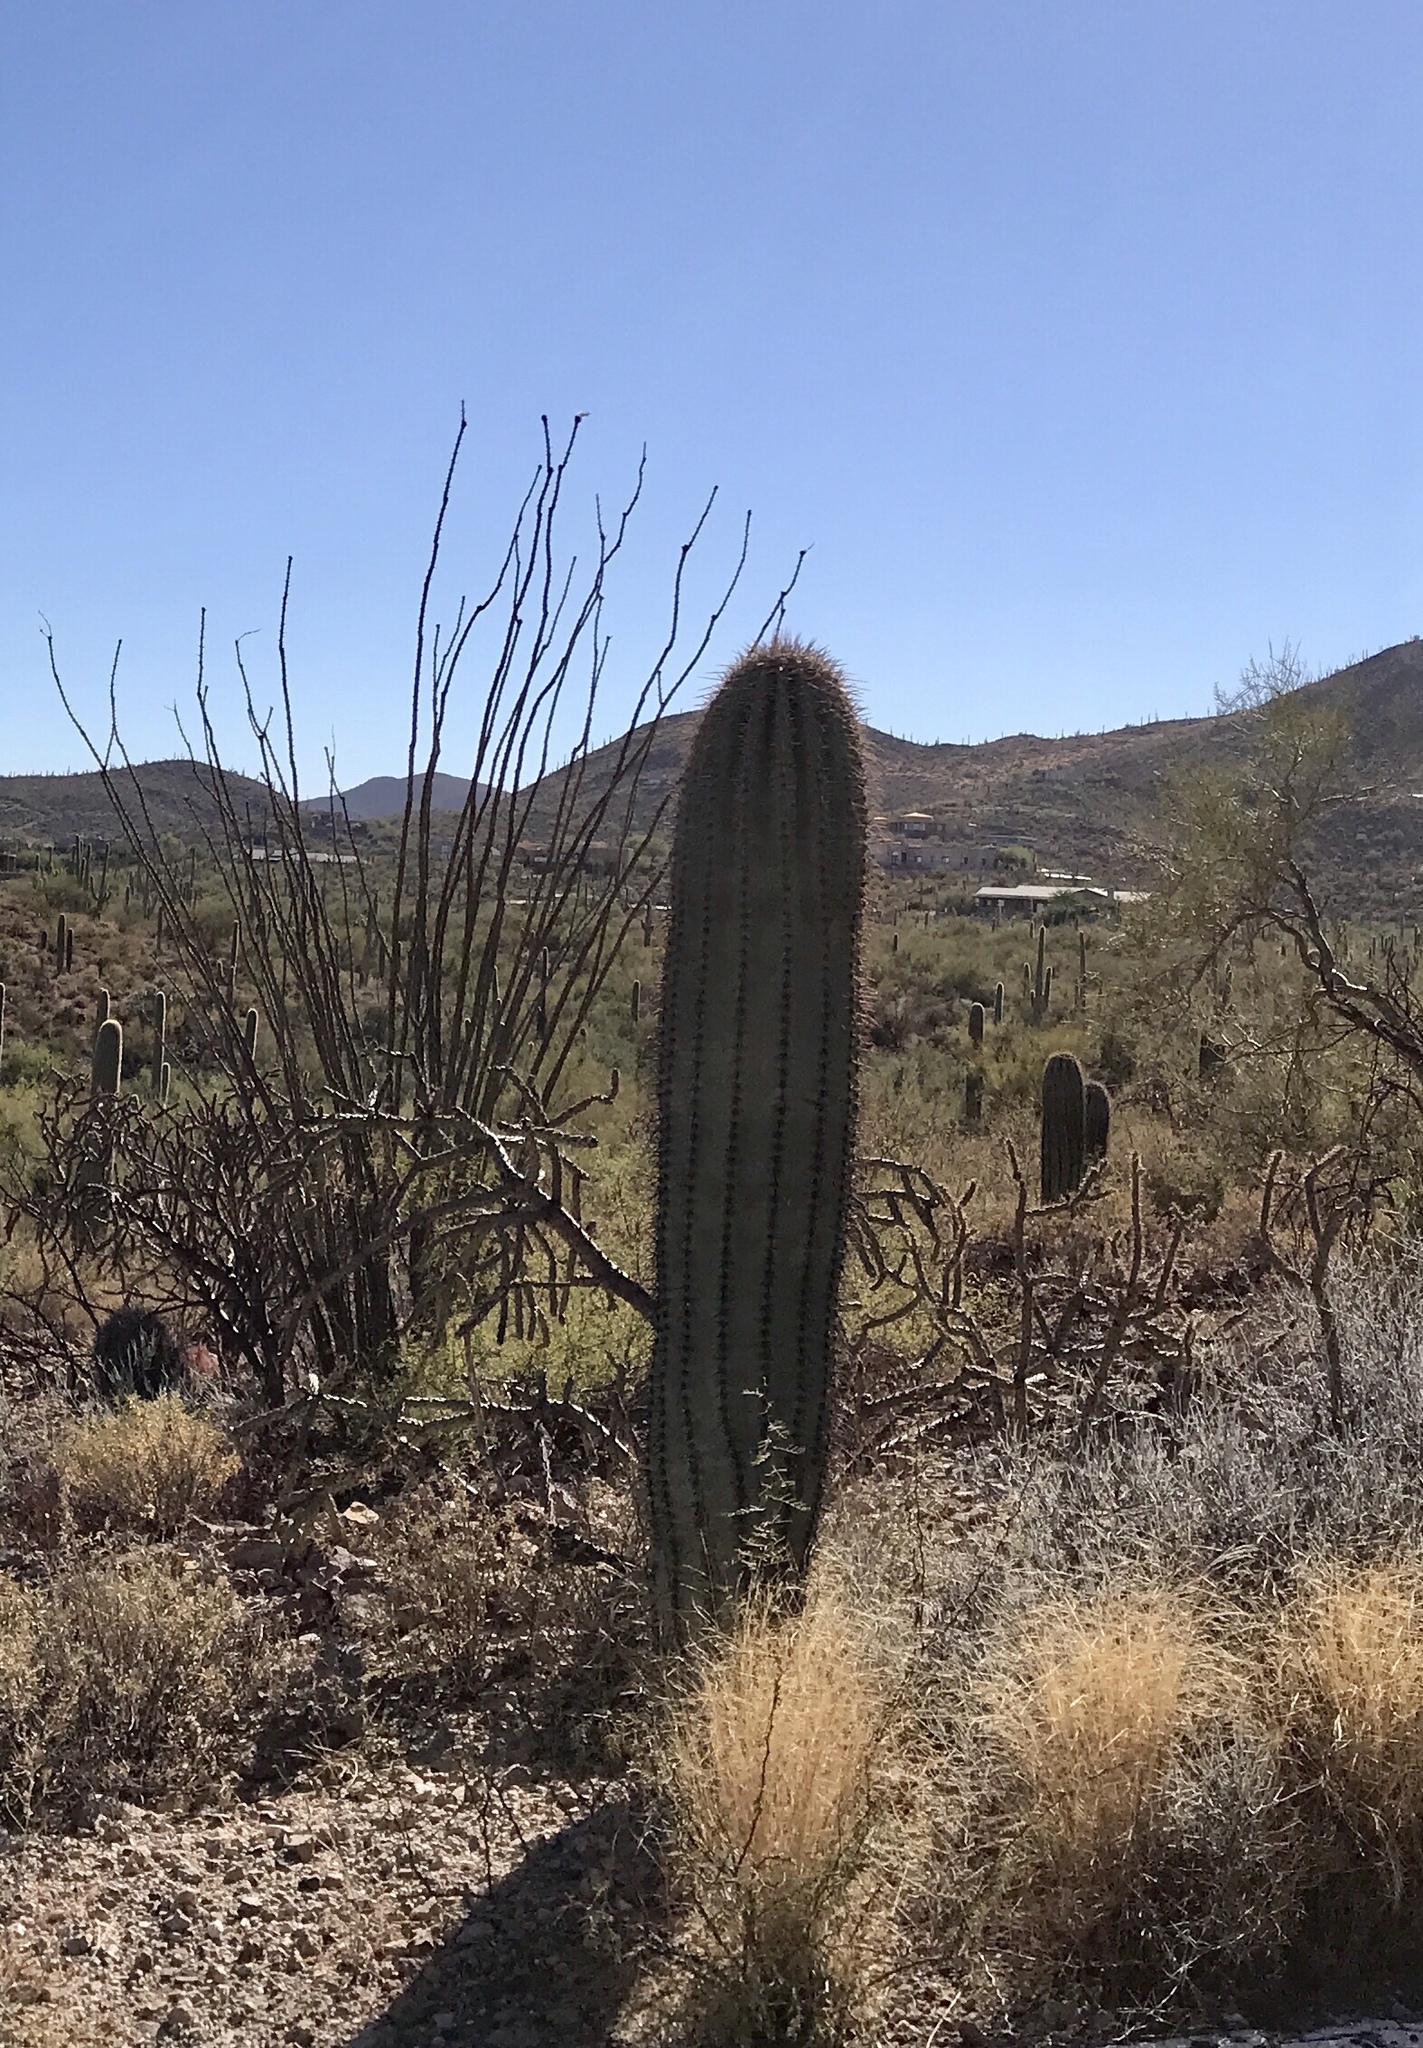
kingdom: Plantae
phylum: Tracheophyta
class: Magnoliopsida
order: Caryophyllales
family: Cactaceae
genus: Carnegiea
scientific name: Carnegiea gigantea
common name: Saguaro
